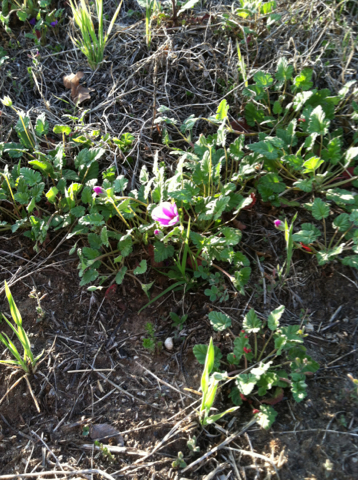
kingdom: Plantae
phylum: Tracheophyta
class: Magnoliopsida
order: Geraniales
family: Geraniaceae
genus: Erodium
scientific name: Erodium texanum
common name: Texas stork's-bill
